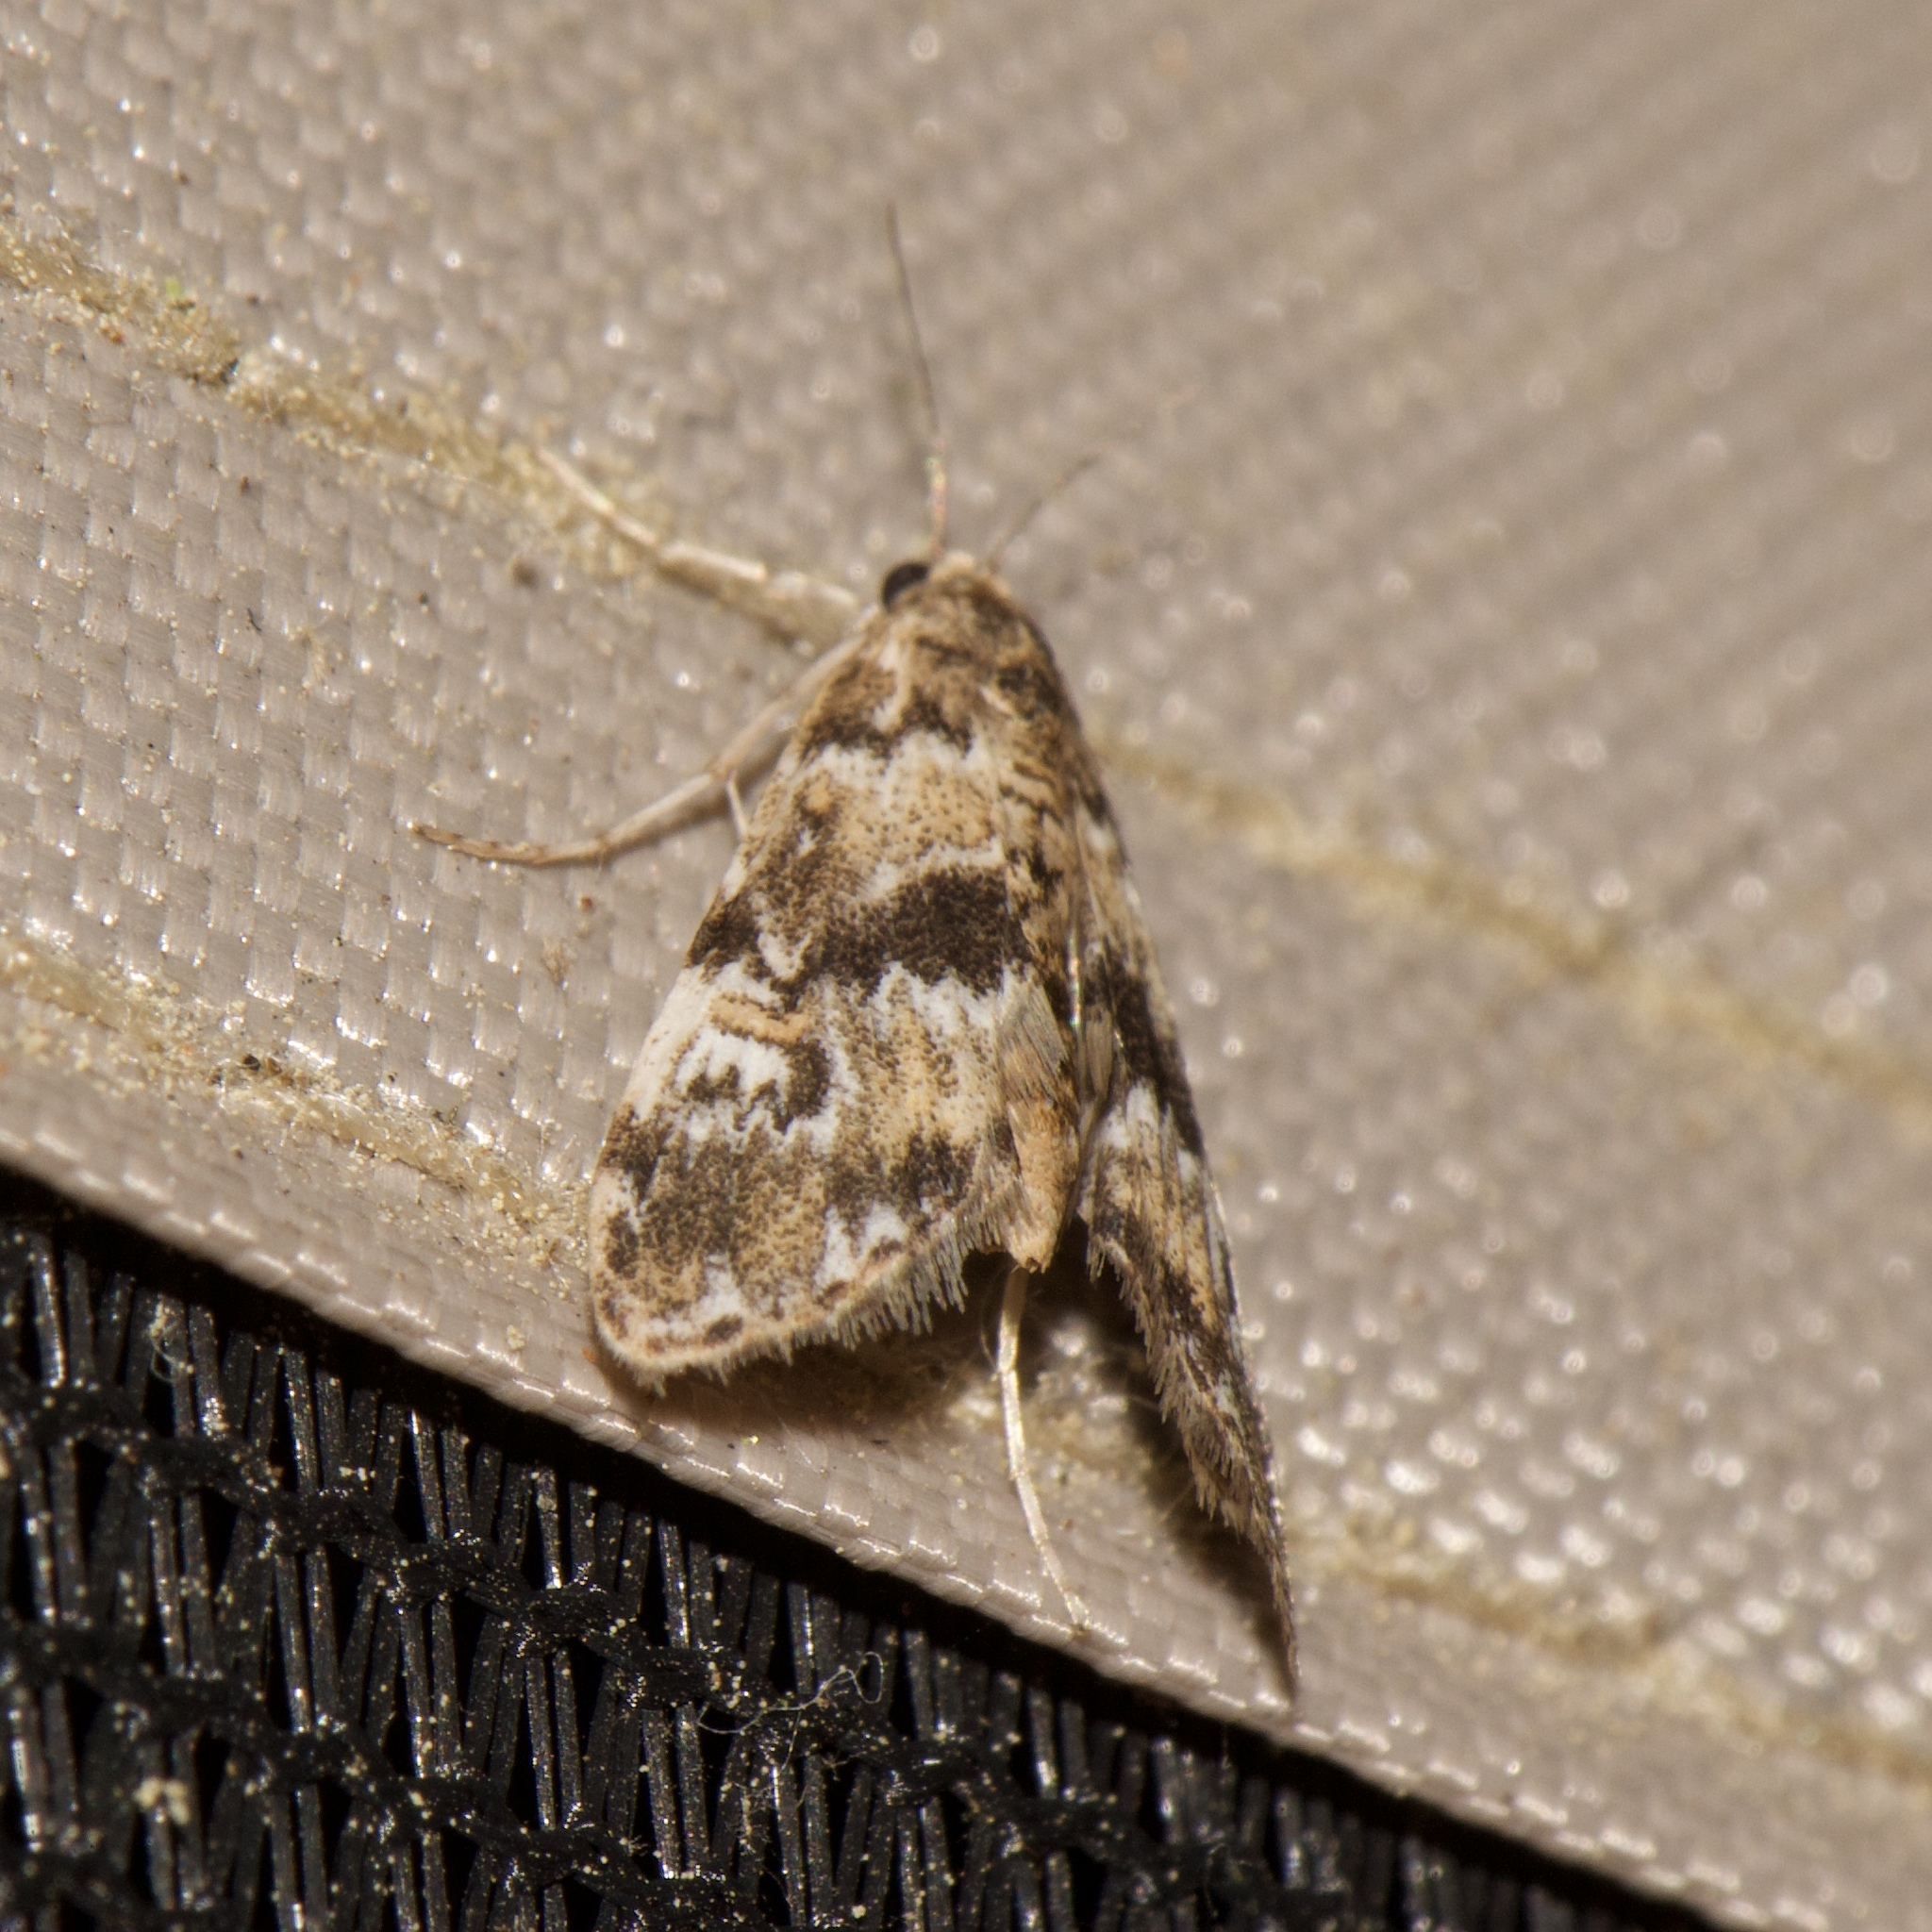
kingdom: Animalia
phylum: Arthropoda
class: Insecta
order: Lepidoptera
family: Crambidae
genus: Elophila
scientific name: Elophila obliteralis
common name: Waterlily leafcutter moth
